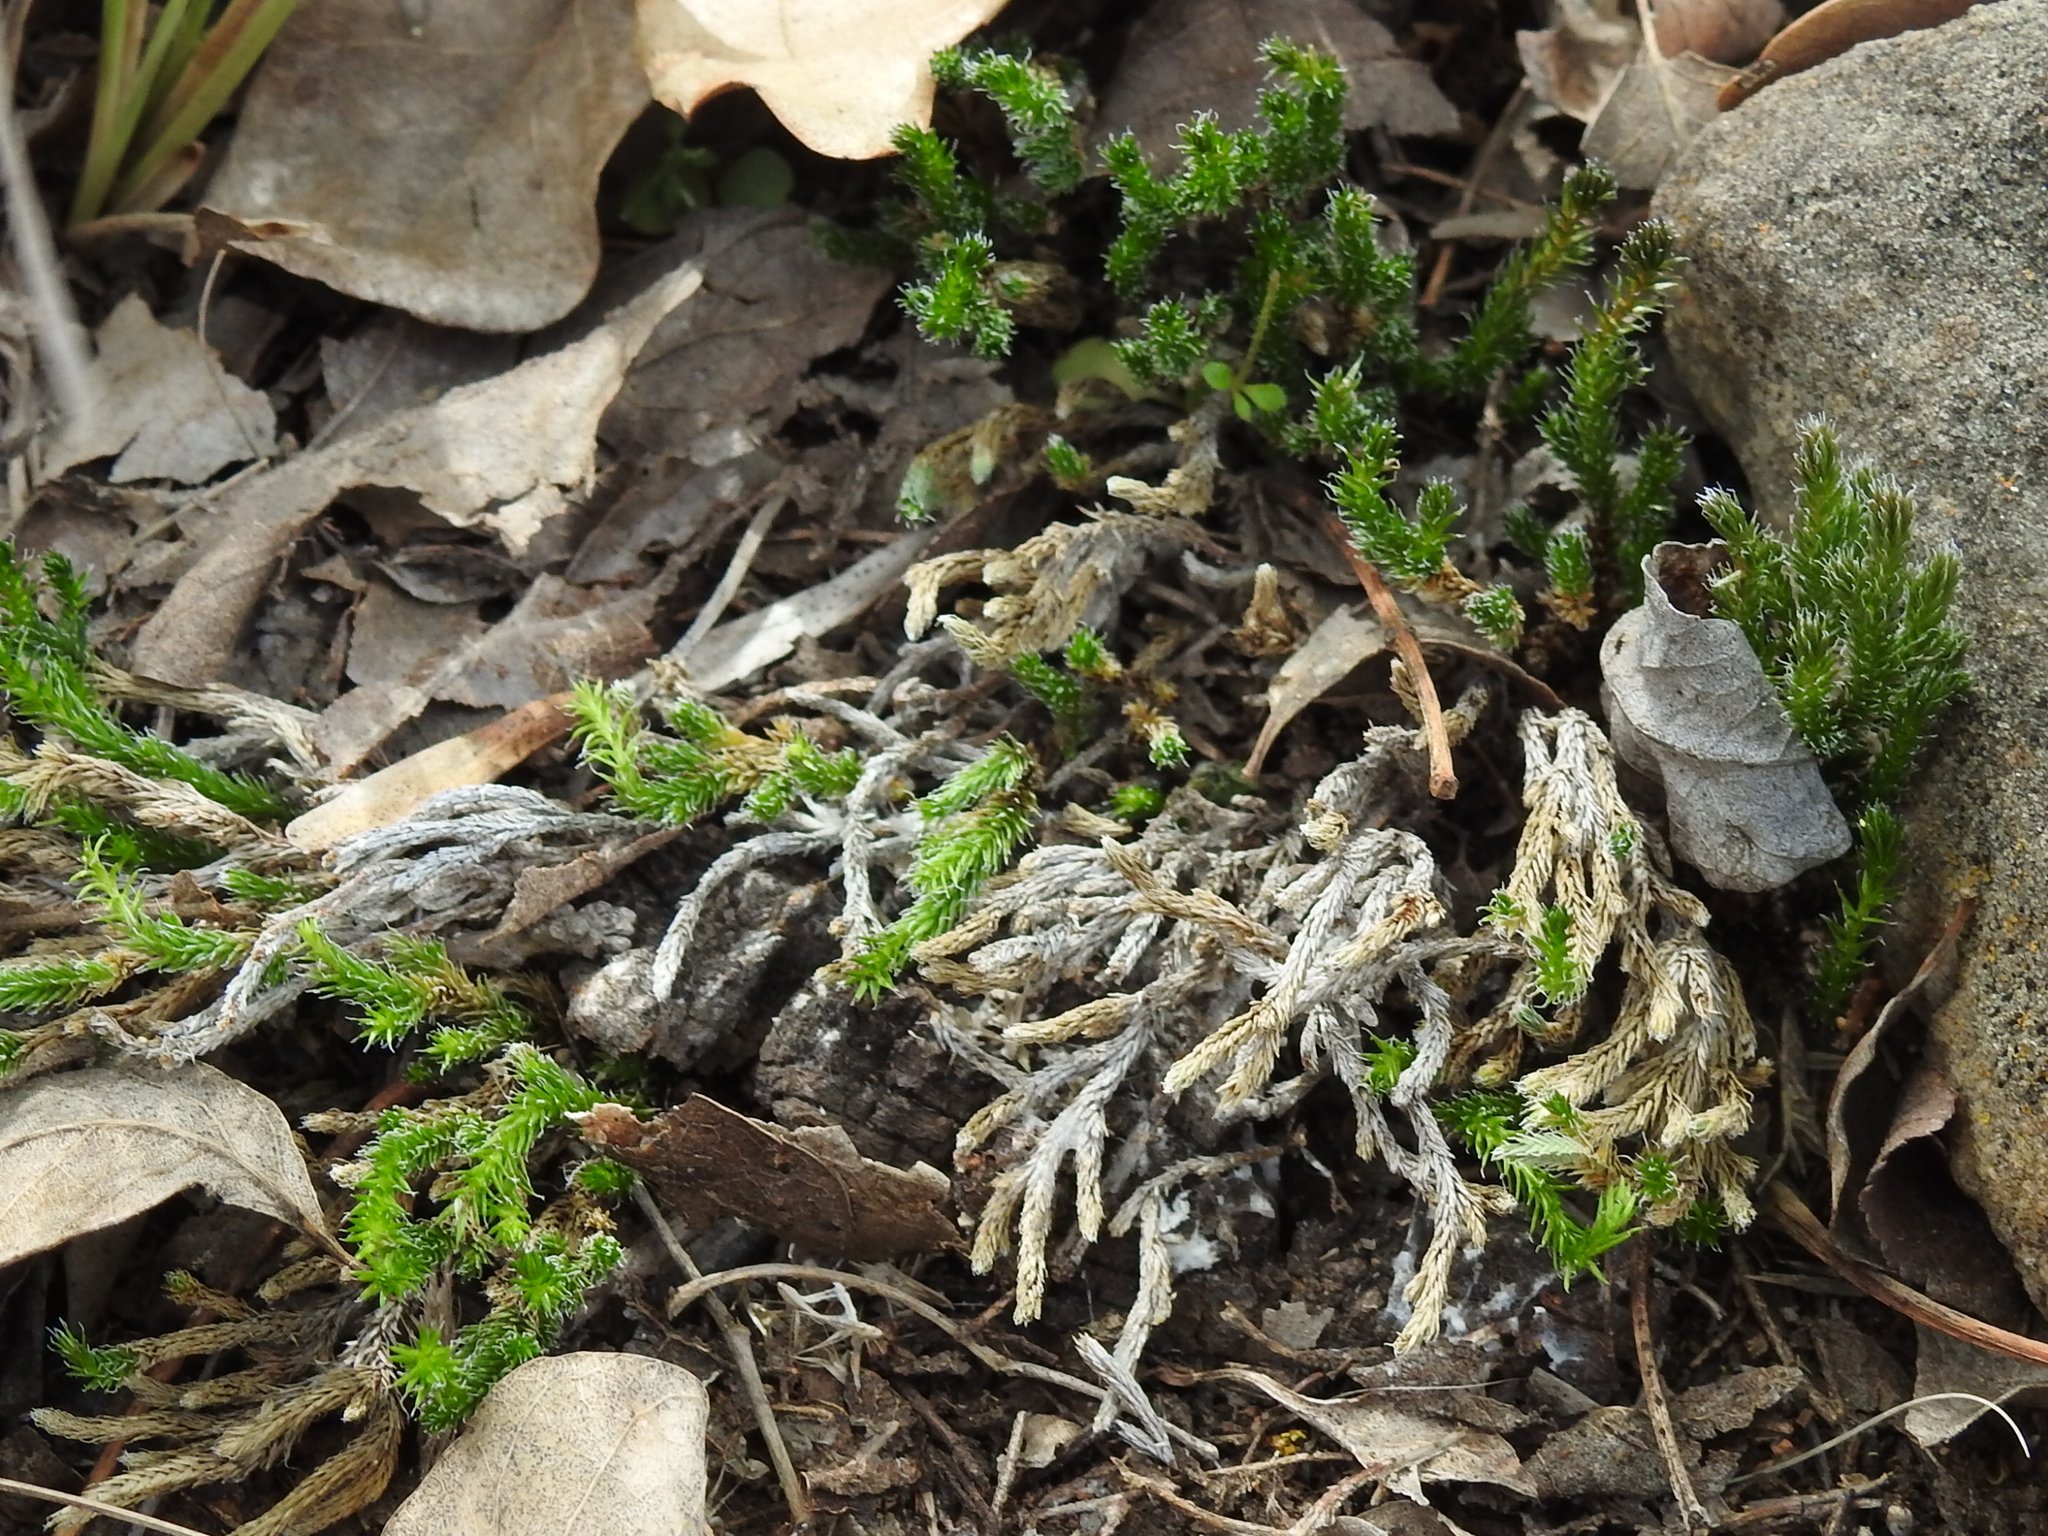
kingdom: Plantae
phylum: Tracheophyta
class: Lycopodiopsida
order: Selaginellales
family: Selaginellaceae
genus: Selaginella
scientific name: Selaginella corallina
